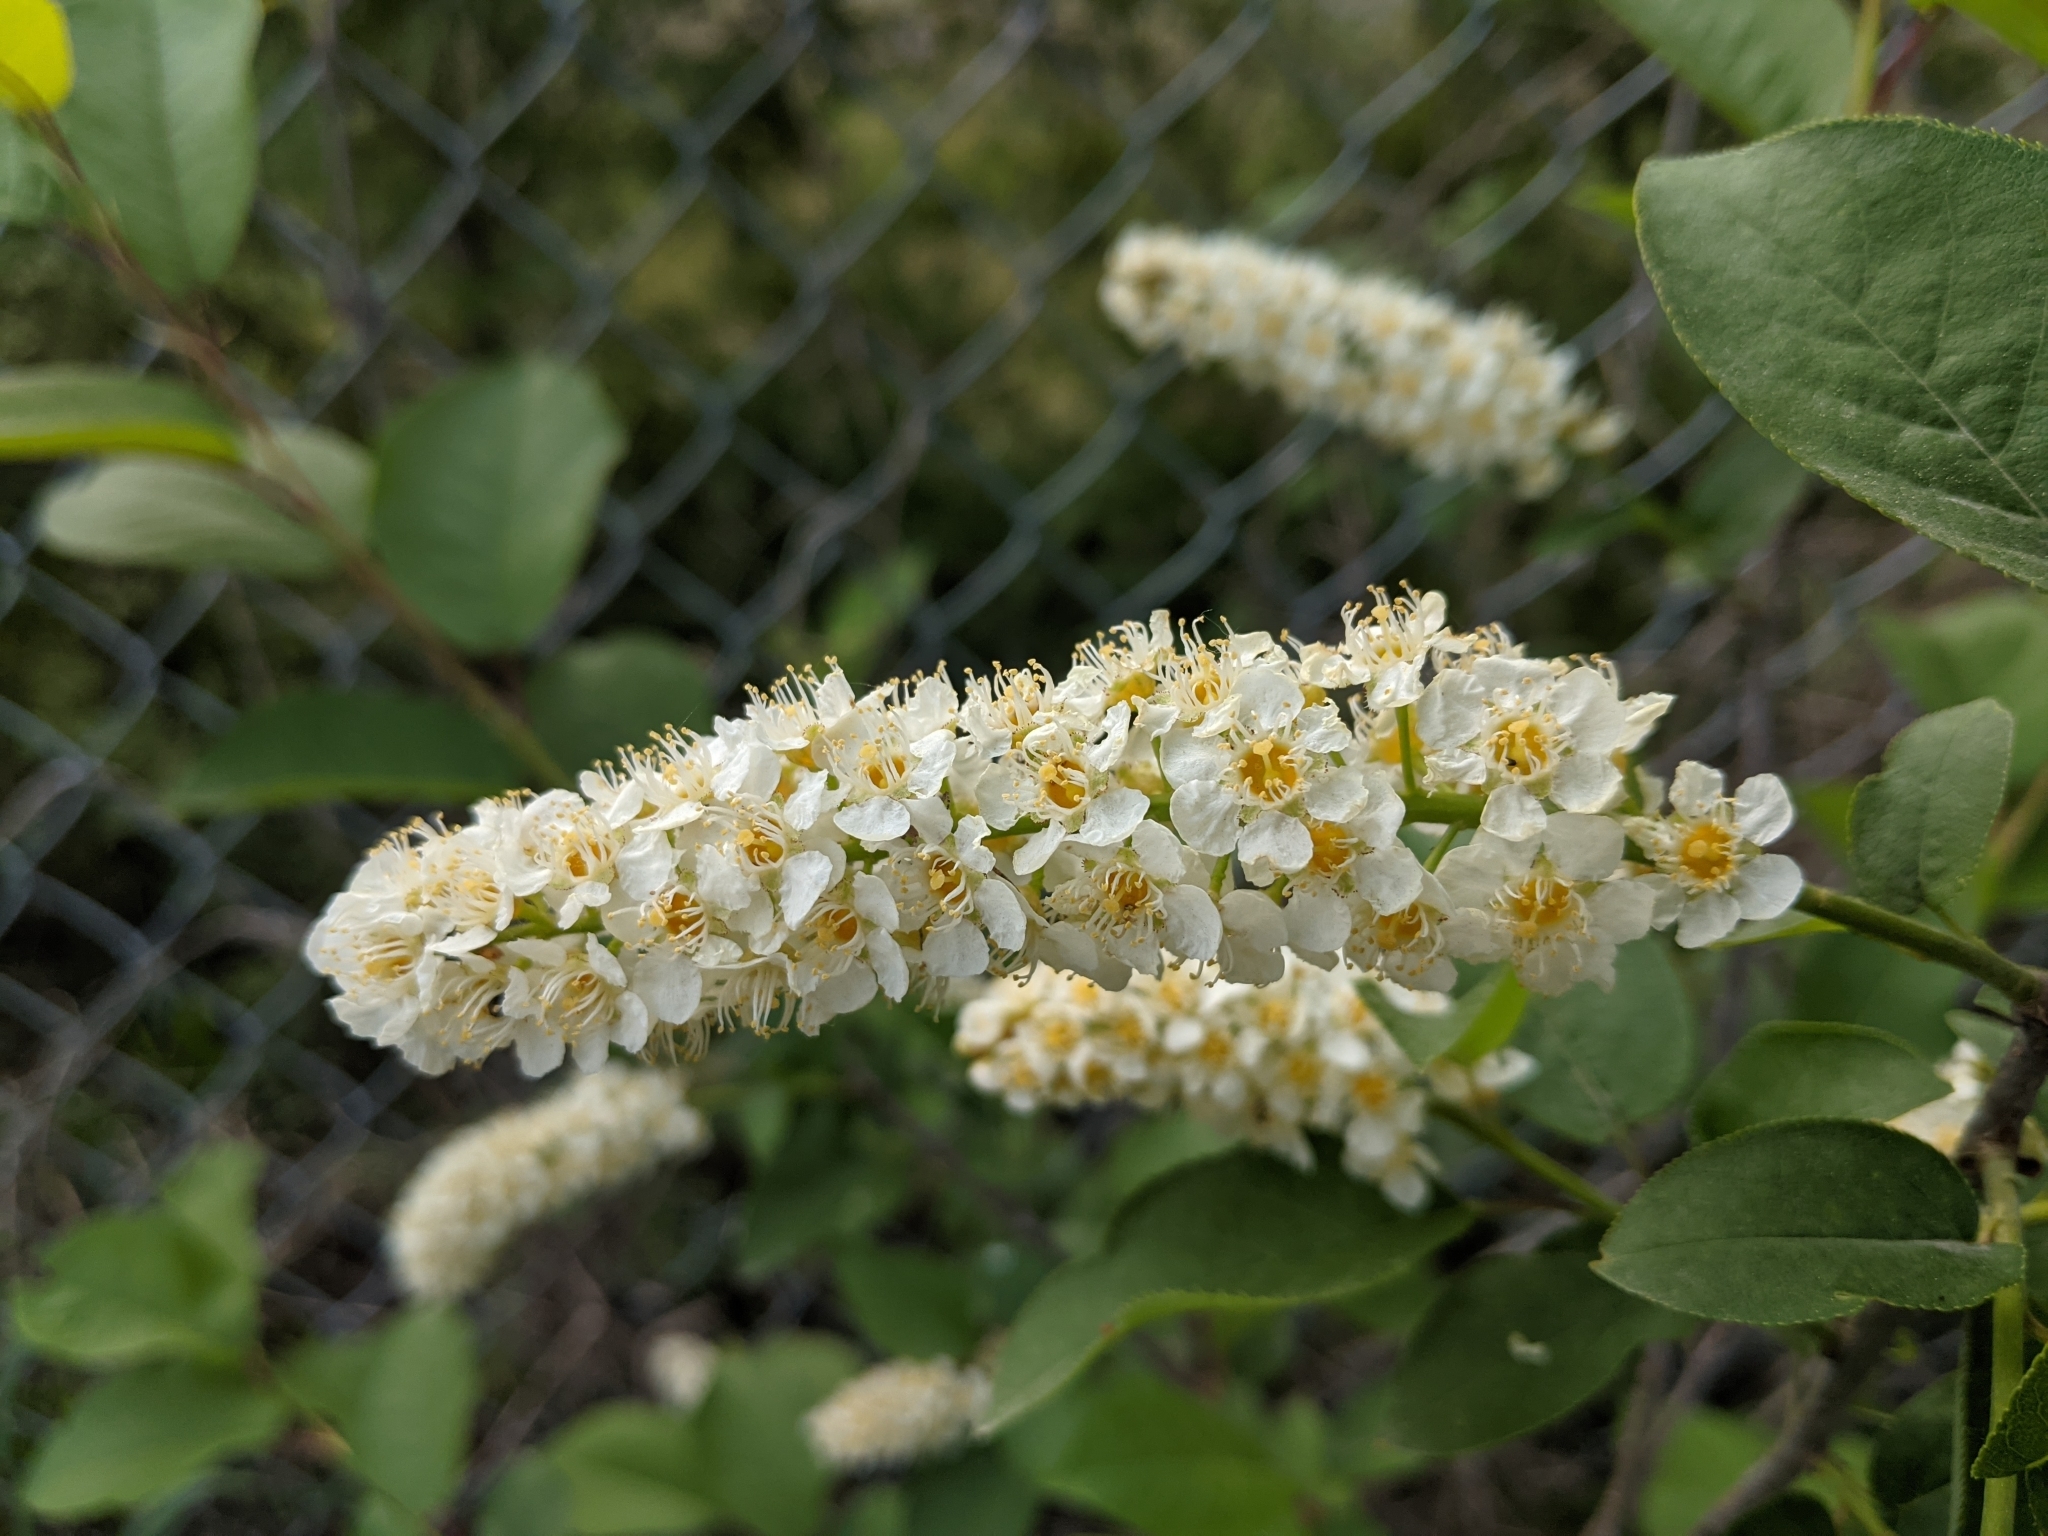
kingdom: Plantae
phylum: Tracheophyta
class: Magnoliopsida
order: Rosales
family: Rosaceae
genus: Prunus
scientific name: Prunus virginiana
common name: Chokecherry
